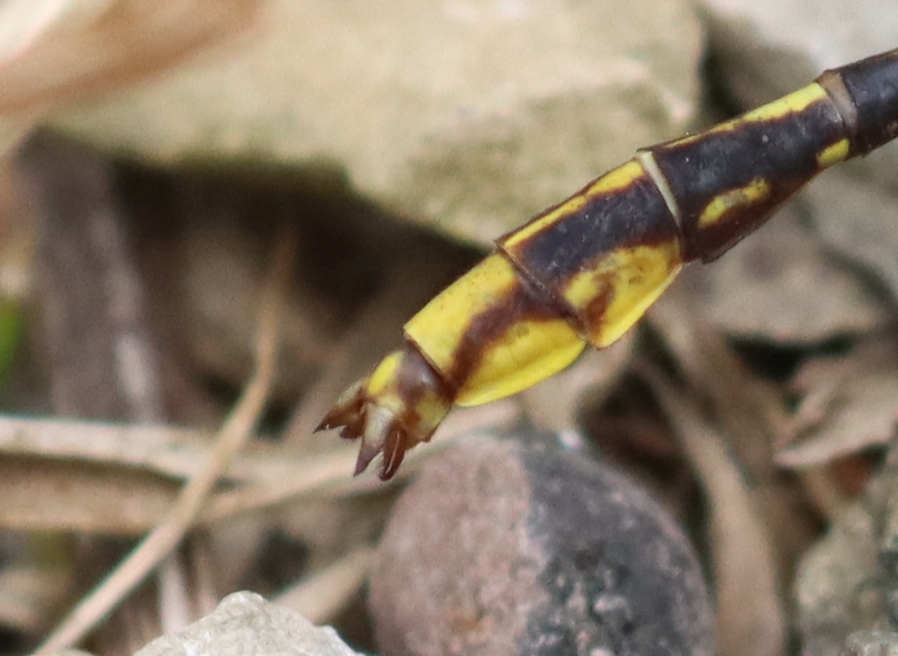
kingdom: Animalia
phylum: Arthropoda
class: Insecta
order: Odonata
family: Gomphidae
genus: Phanogomphus
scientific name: Phanogomphus exilis
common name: Lancet clubtail
